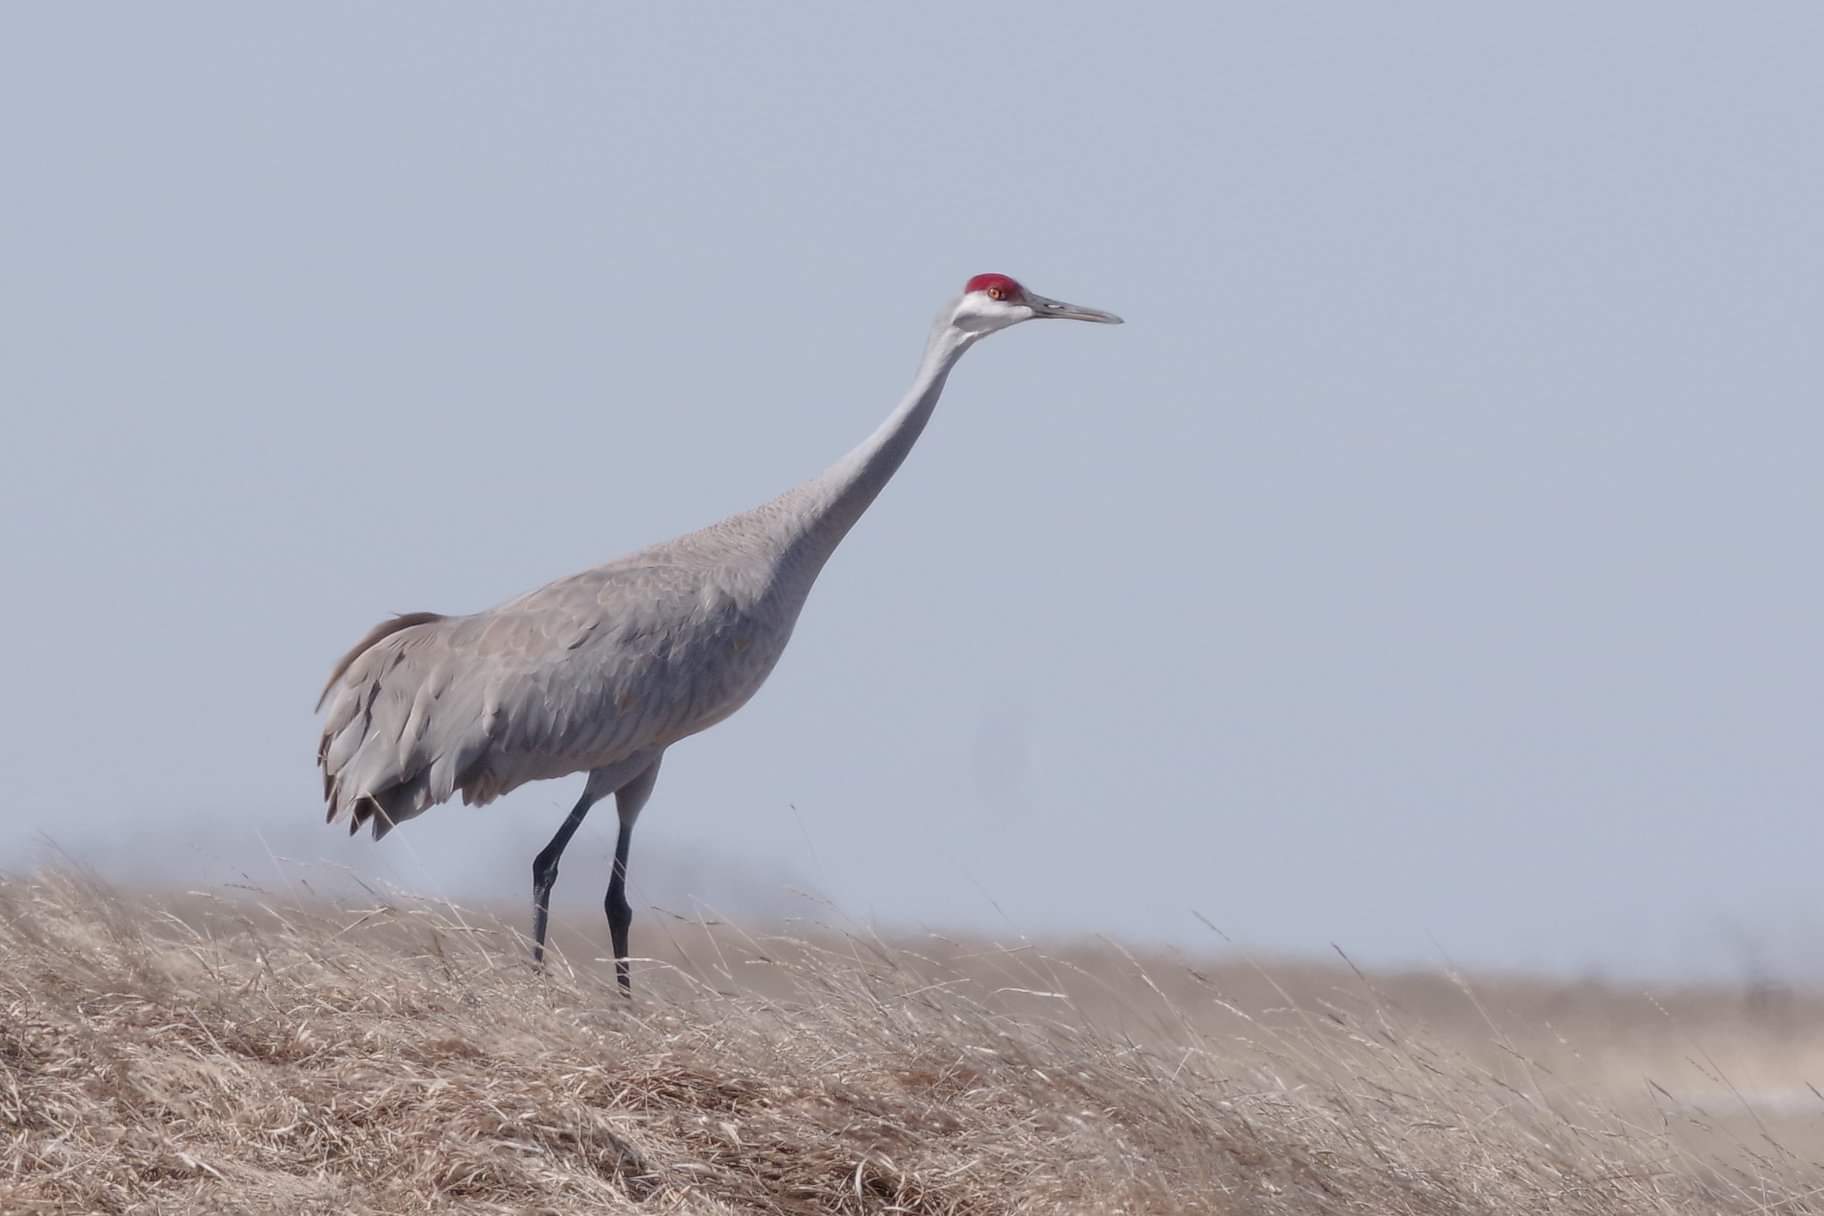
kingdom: Animalia
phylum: Chordata
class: Aves
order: Gruiformes
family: Gruidae
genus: Grus
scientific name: Grus canadensis
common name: Sandhill crane
